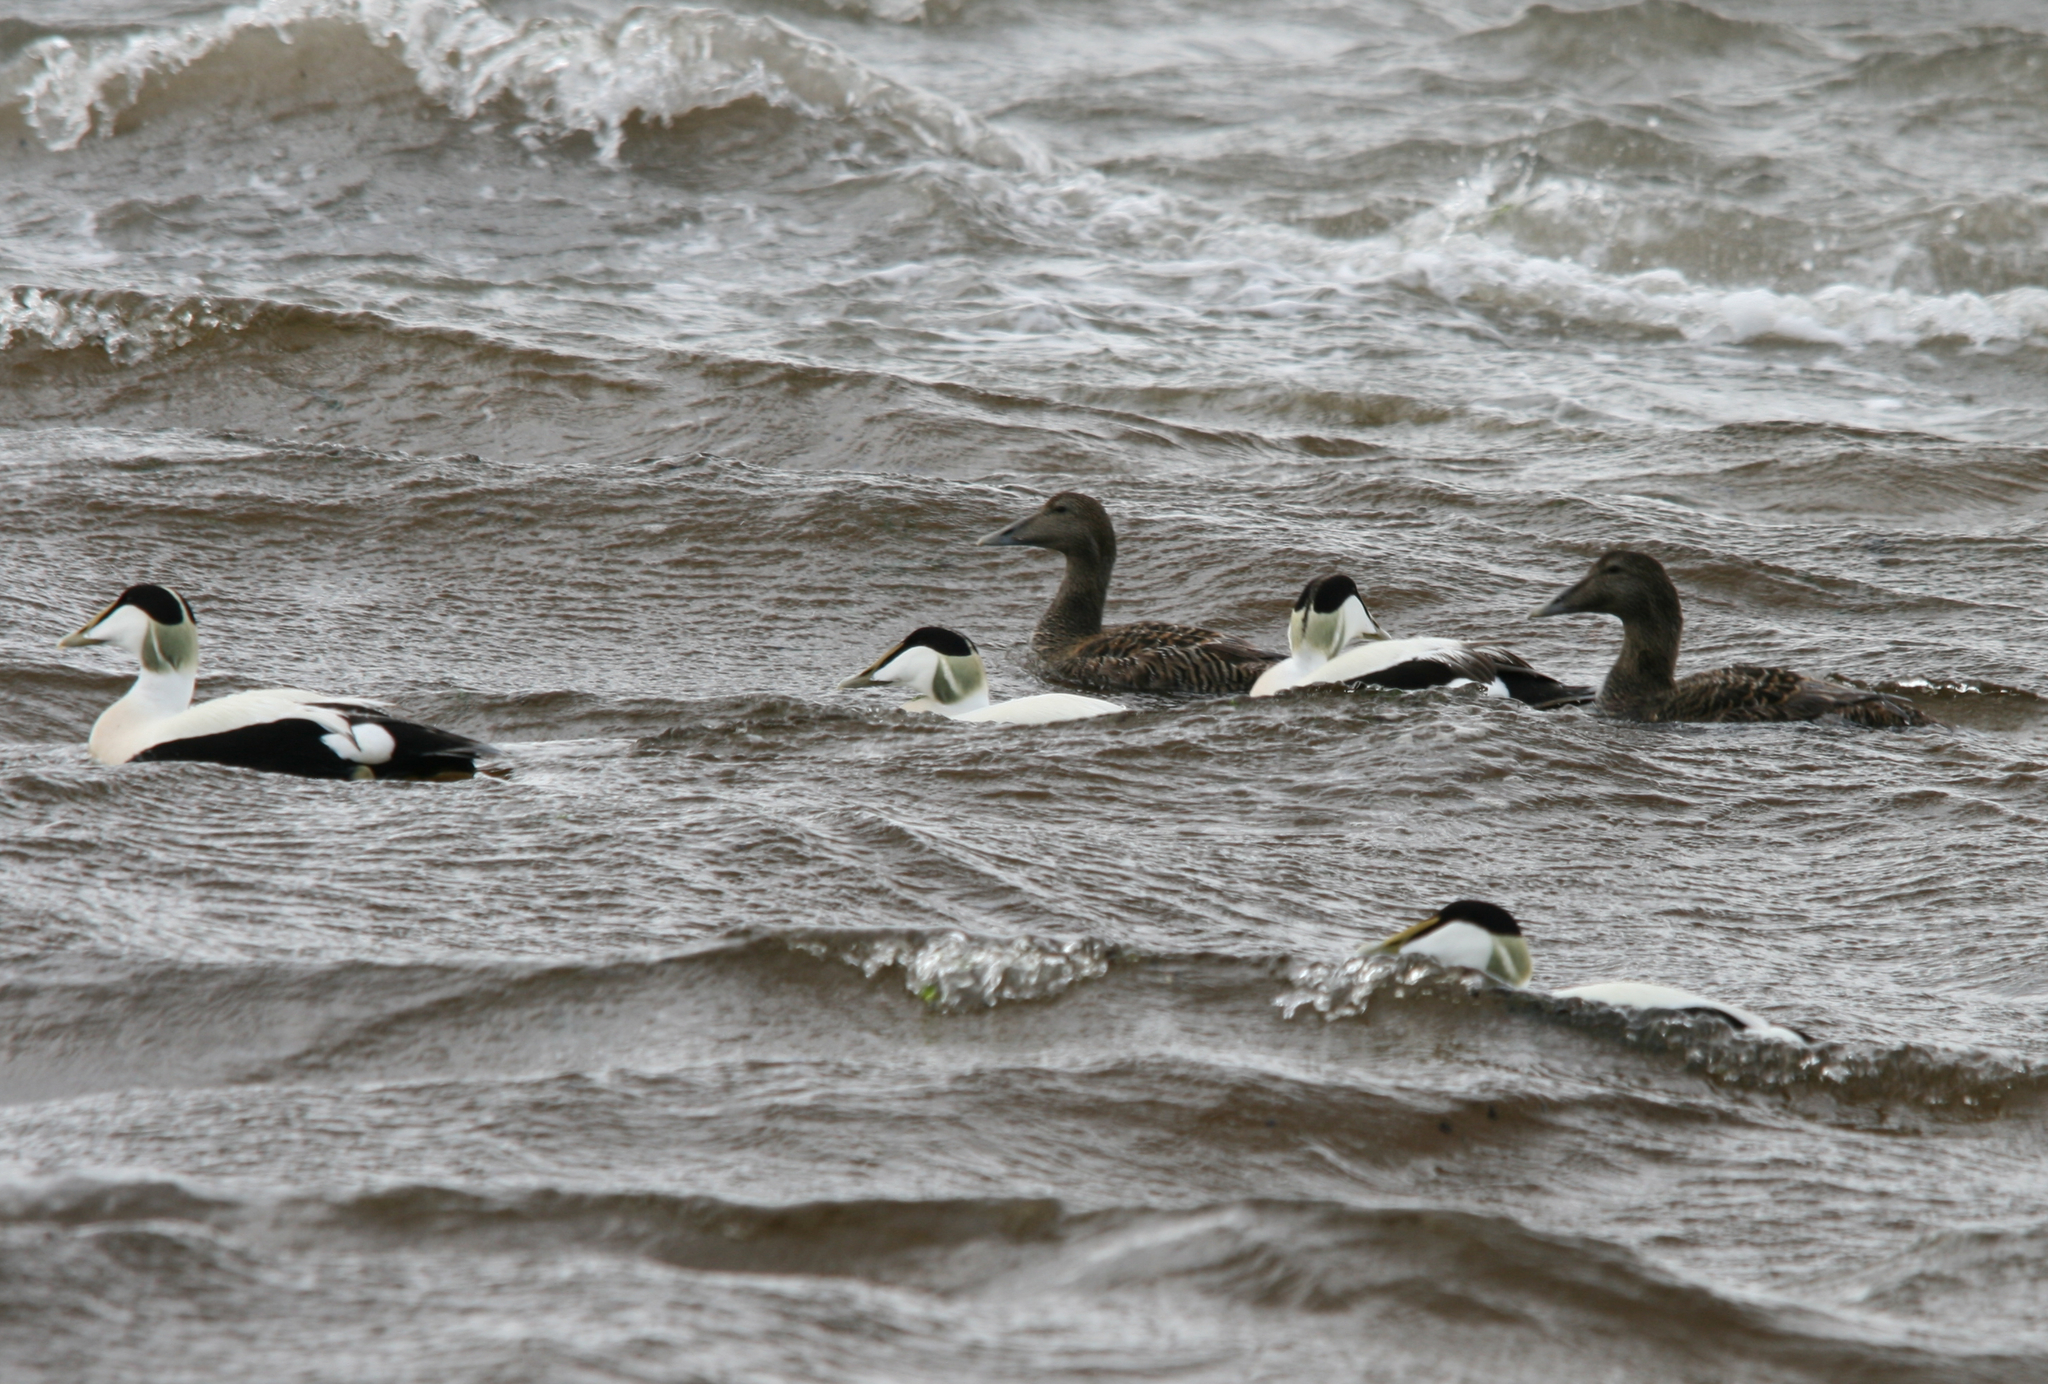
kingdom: Animalia
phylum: Chordata
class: Aves
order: Anseriformes
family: Anatidae
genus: Somateria
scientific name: Somateria mollissima
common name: Common eider
